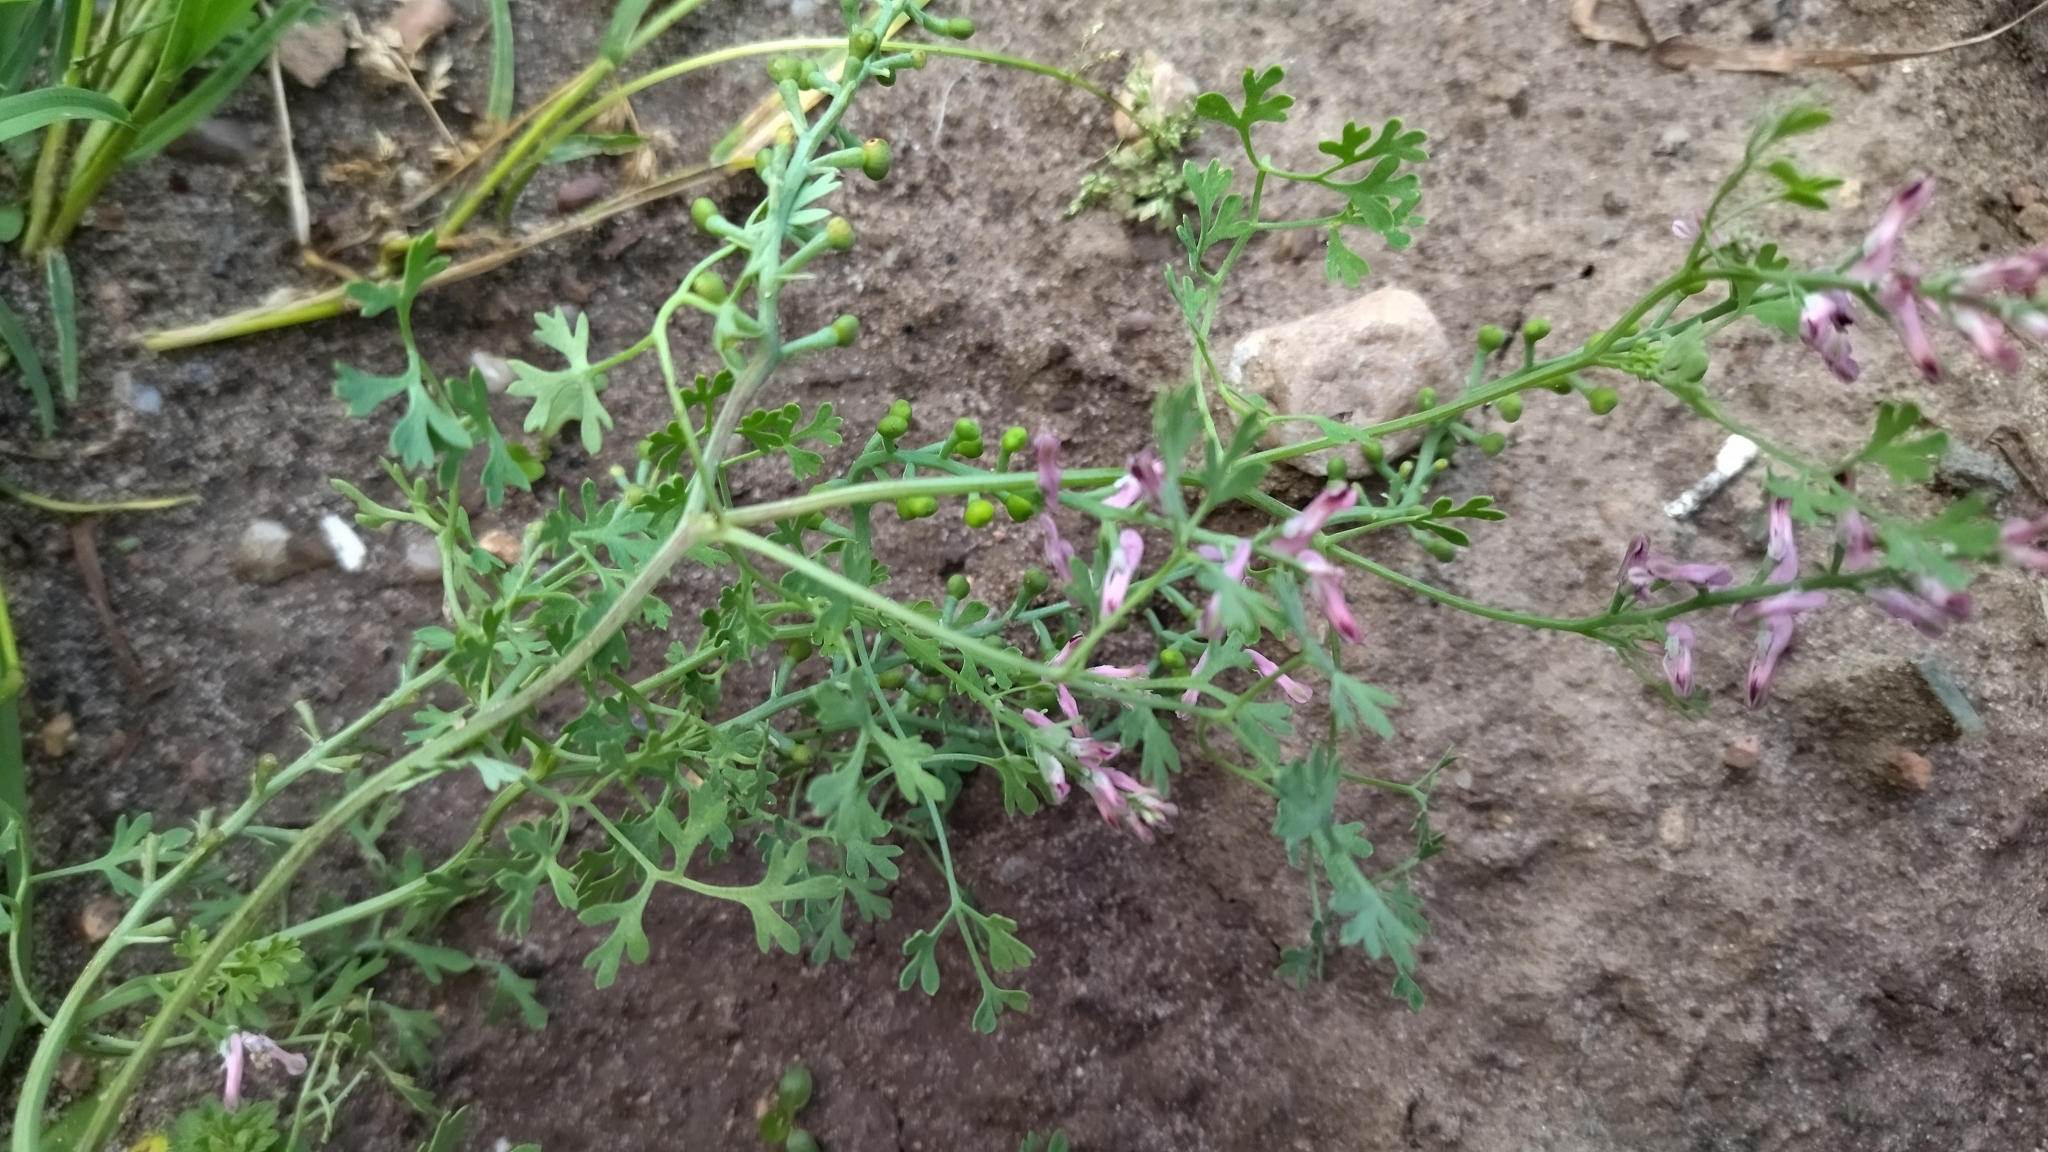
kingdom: Plantae
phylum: Tracheophyta
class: Magnoliopsida
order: Ranunculales
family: Papaveraceae
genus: Fumaria
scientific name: Fumaria officinalis
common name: Common fumitory
